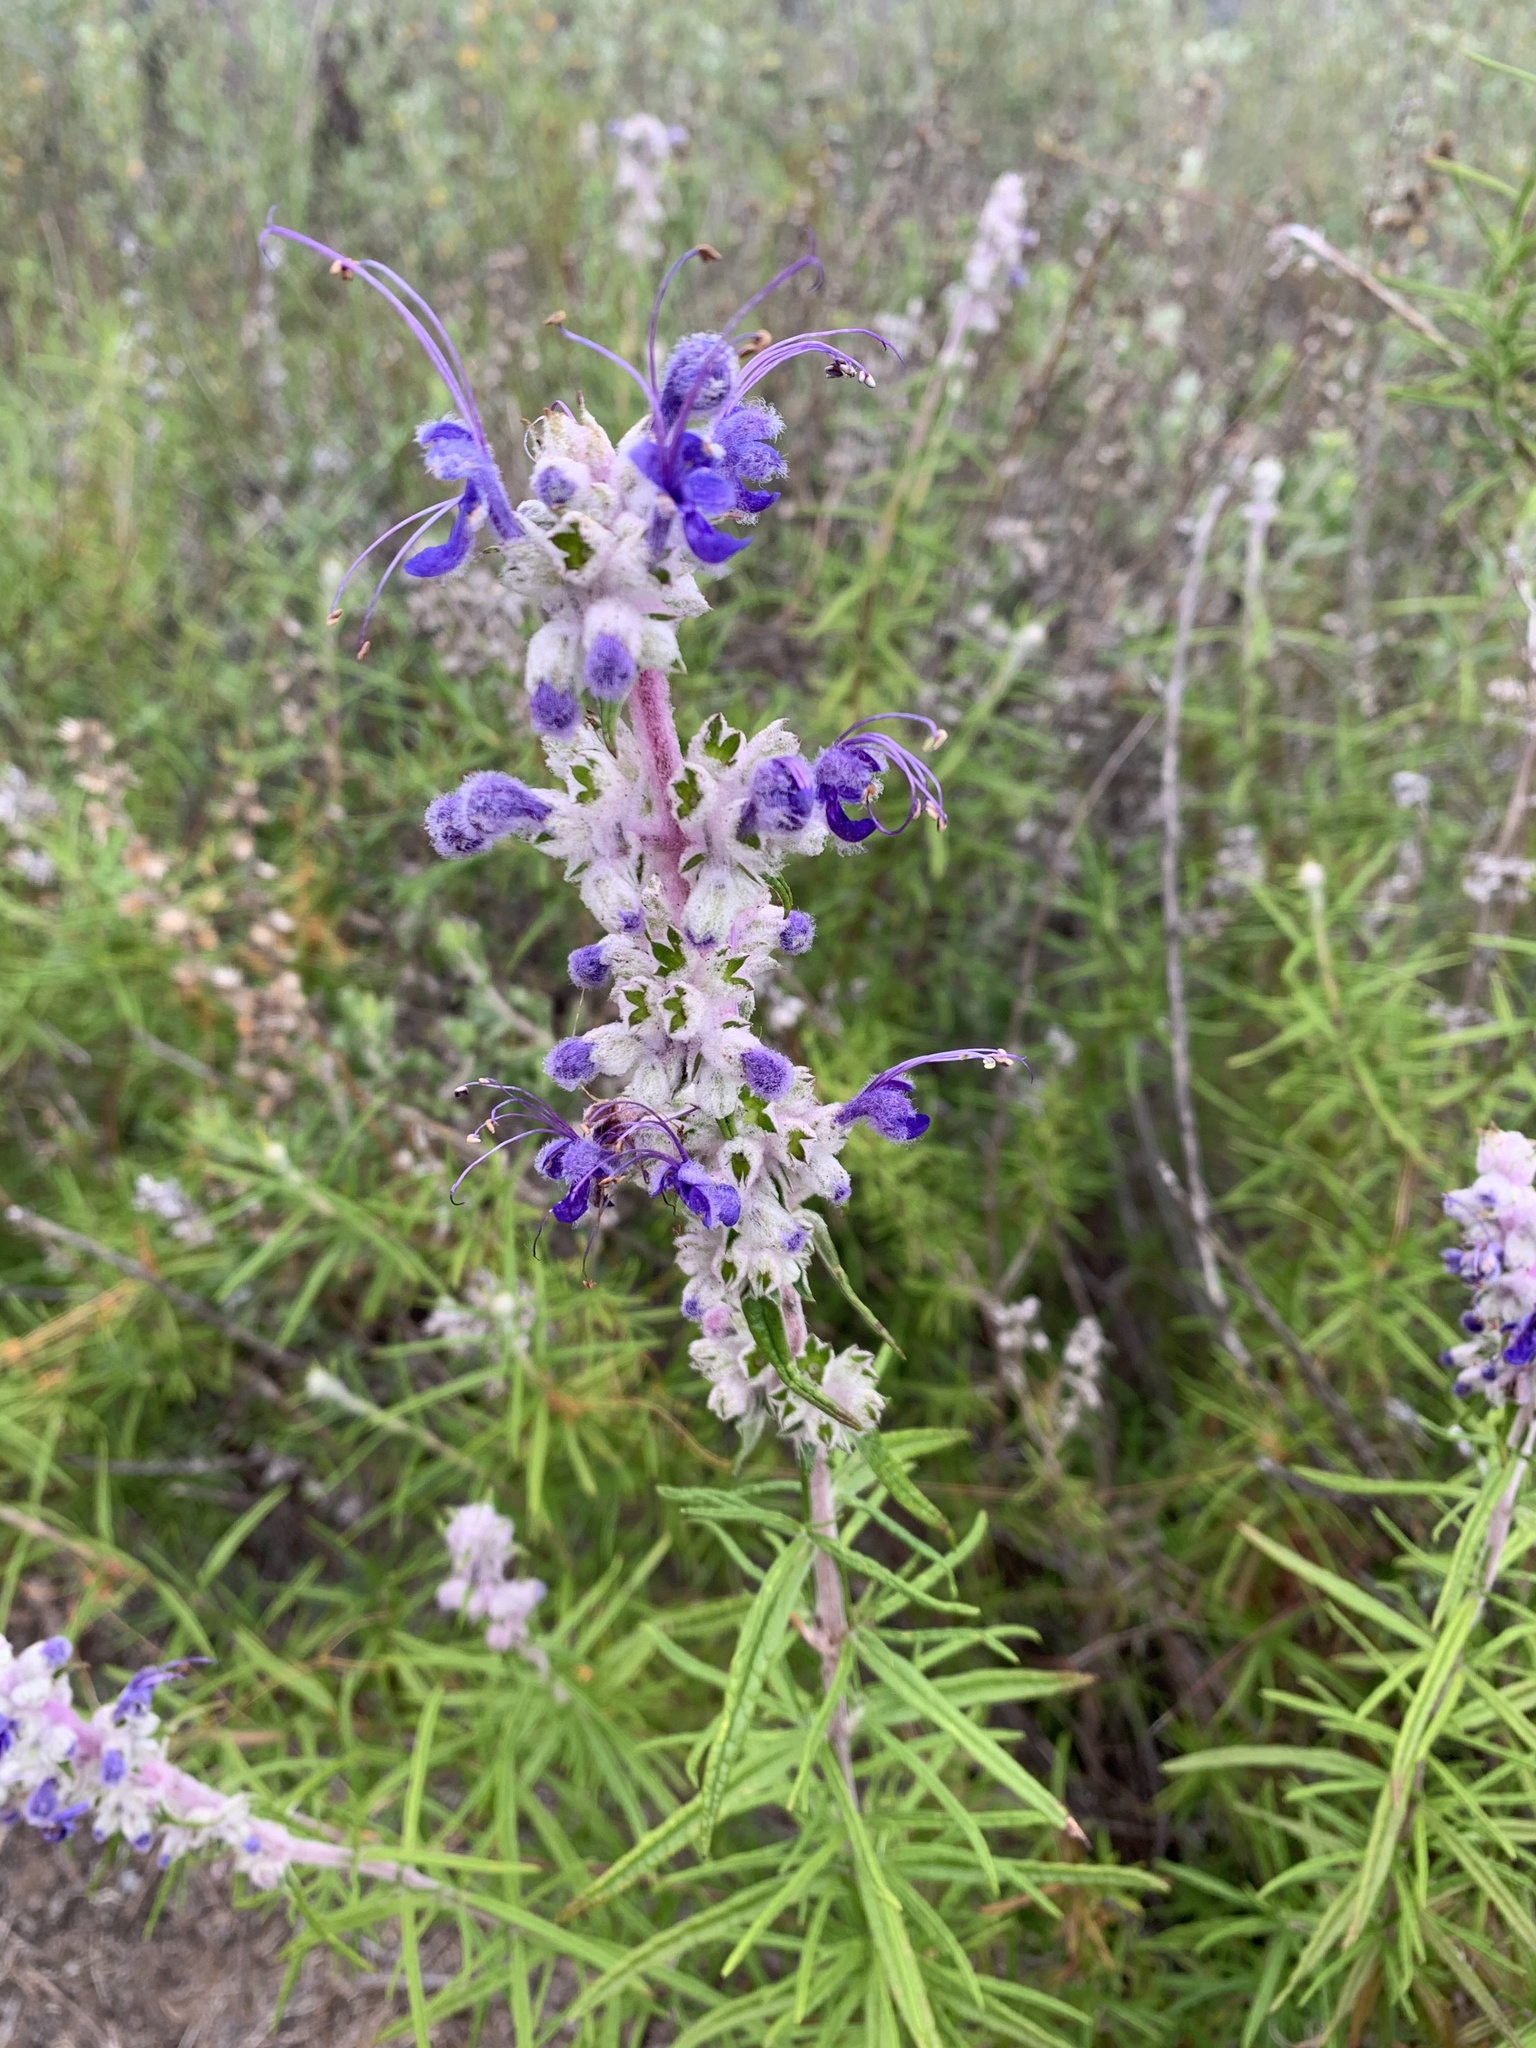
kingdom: Plantae
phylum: Tracheophyta
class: Magnoliopsida
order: Lamiales
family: Lamiaceae
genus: Trichostema
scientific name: Trichostema lanatum
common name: Woolly bluecurls
